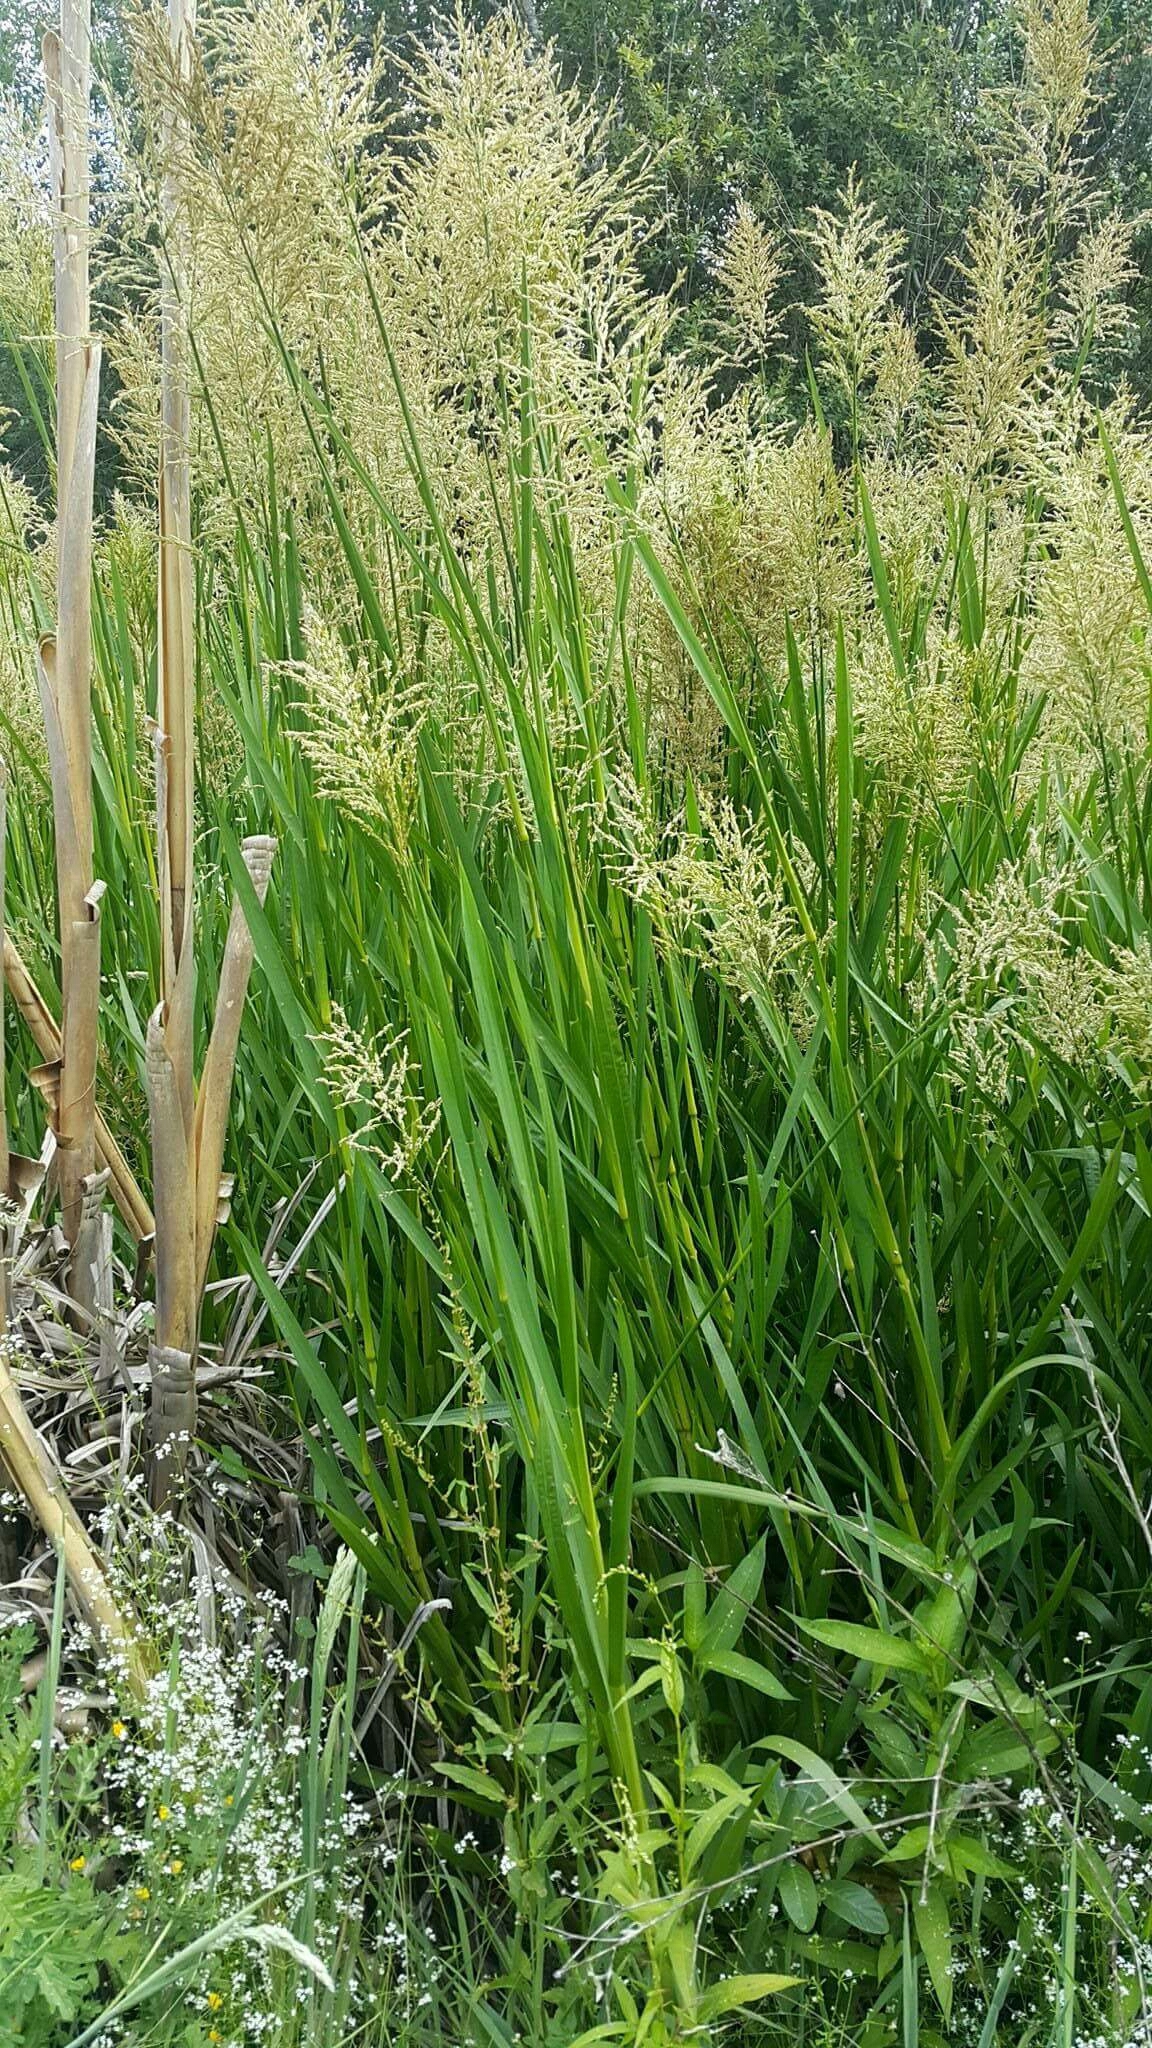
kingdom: Plantae
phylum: Tracheophyta
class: Liliopsida
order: Poales
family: Poaceae
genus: Glyceria
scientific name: Glyceria maxima
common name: Reed mannagrass
